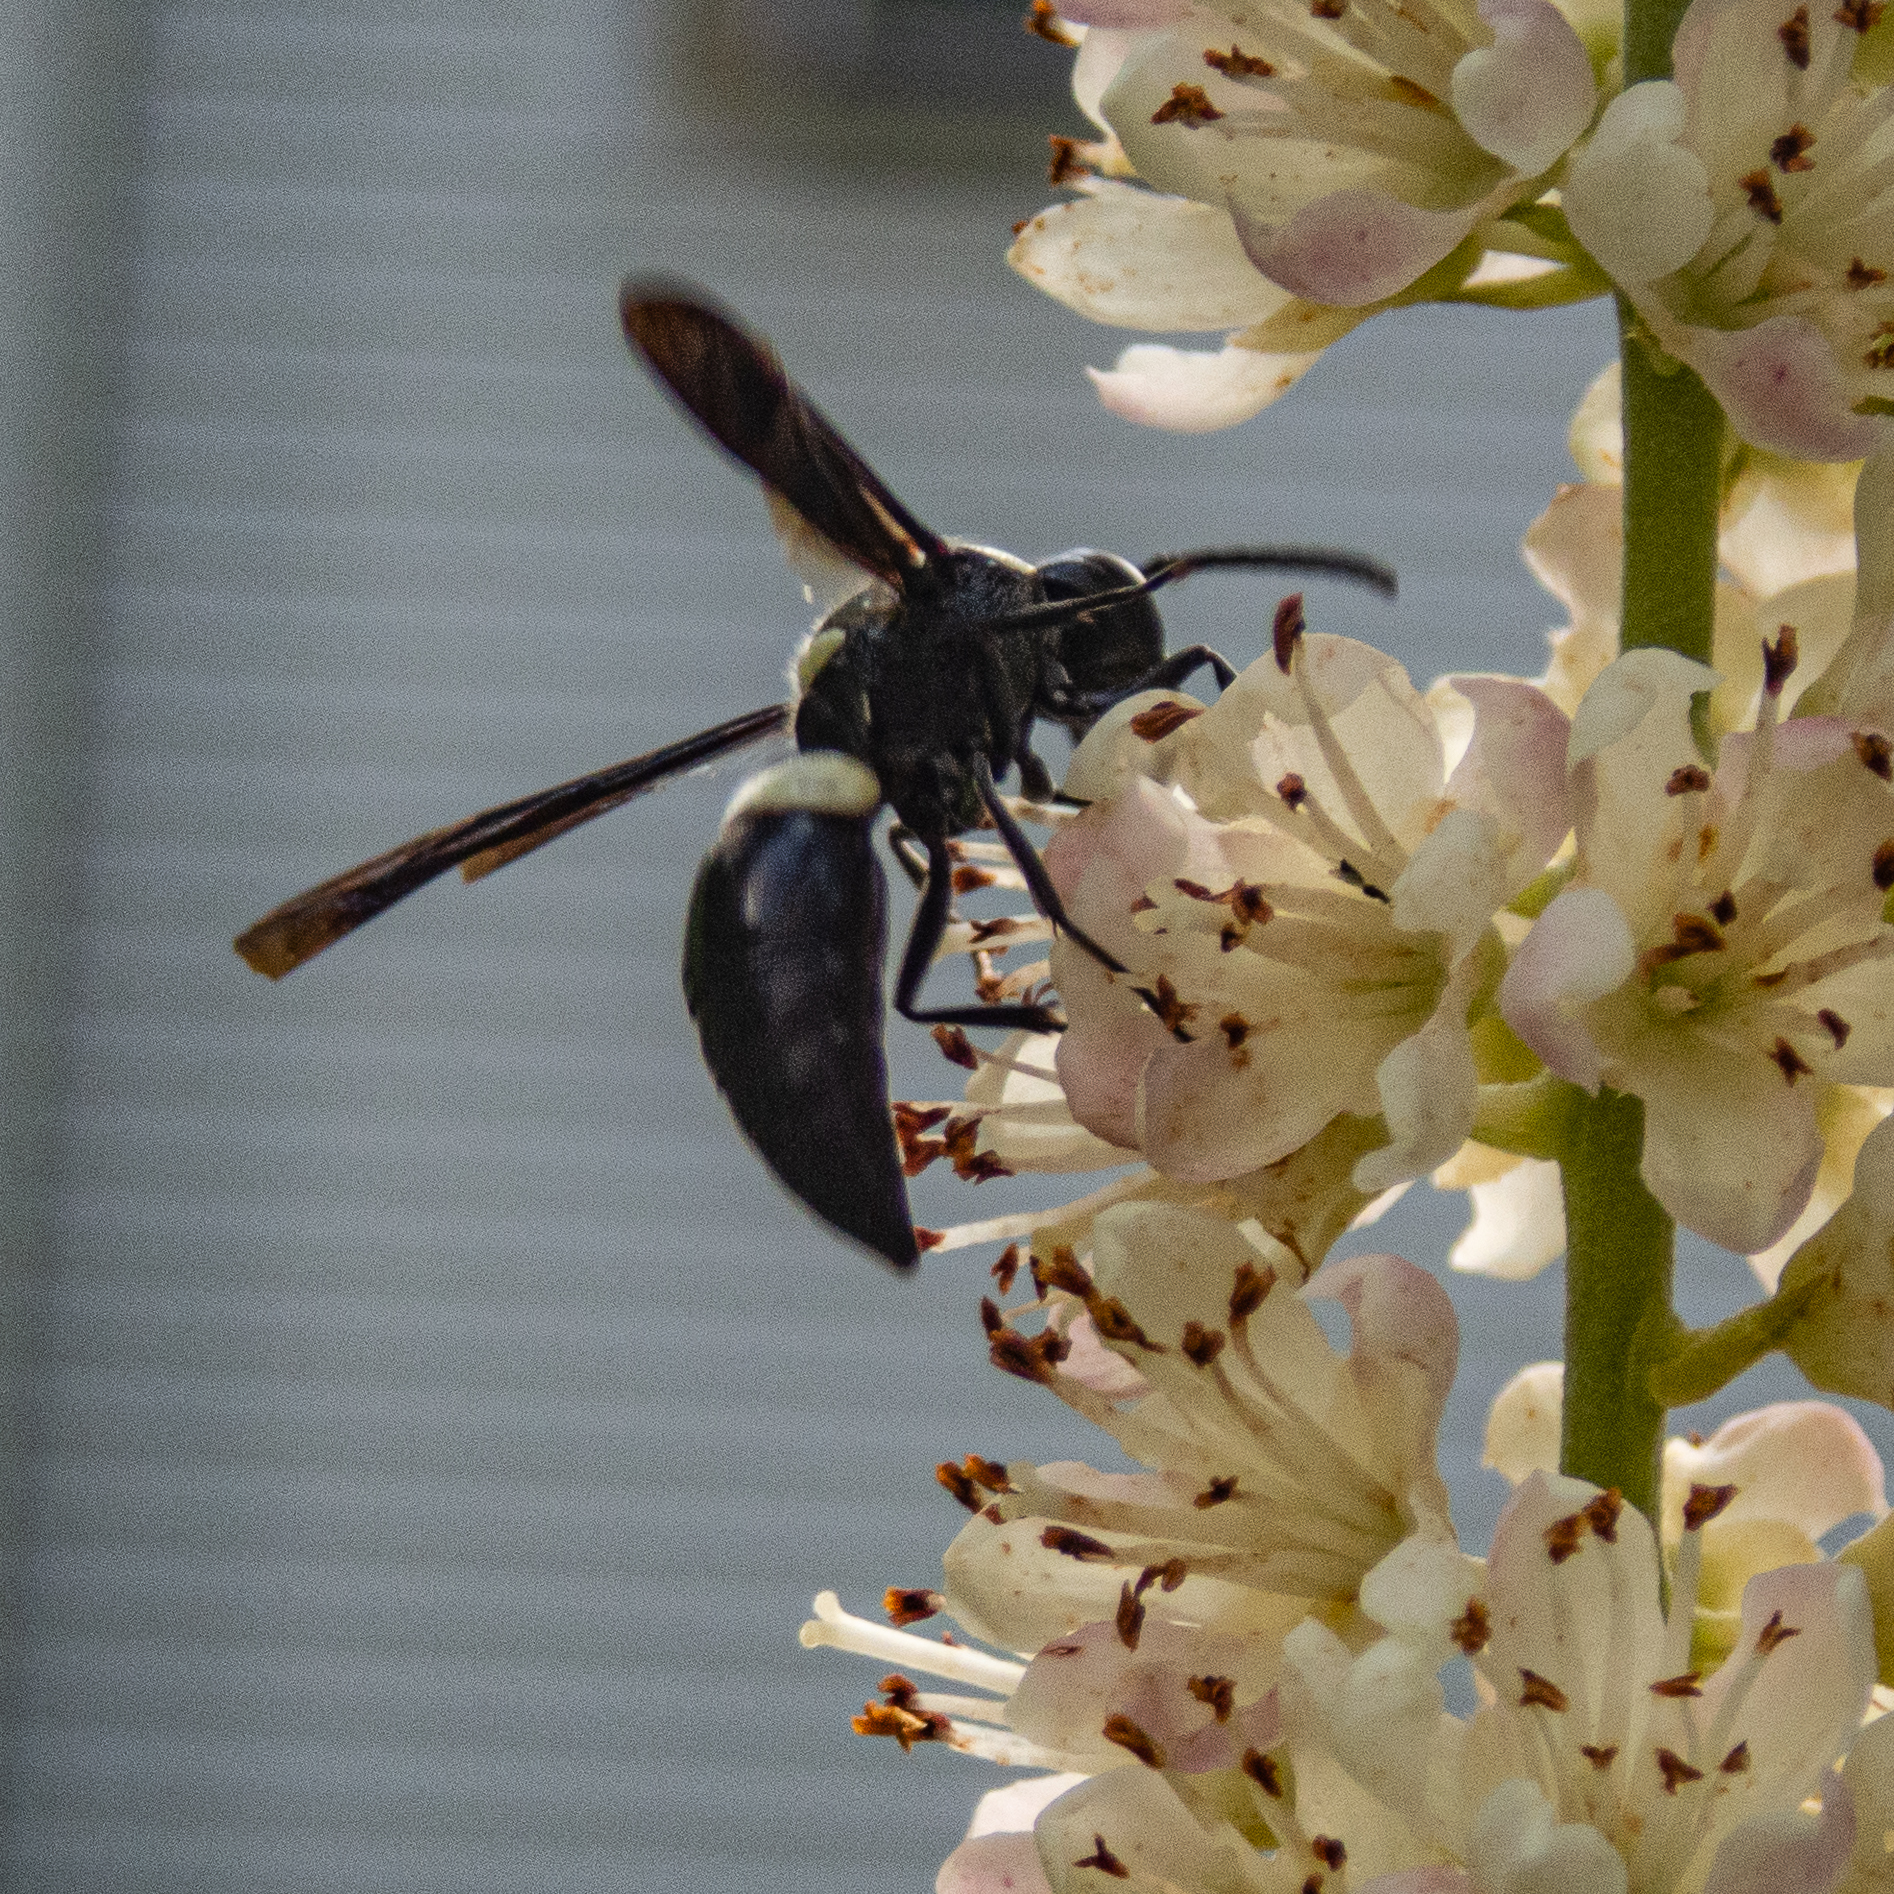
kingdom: Animalia
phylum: Arthropoda
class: Insecta
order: Hymenoptera
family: Eumenidae
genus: Monobia
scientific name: Monobia quadridens
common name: Four-toothed mason wasp
